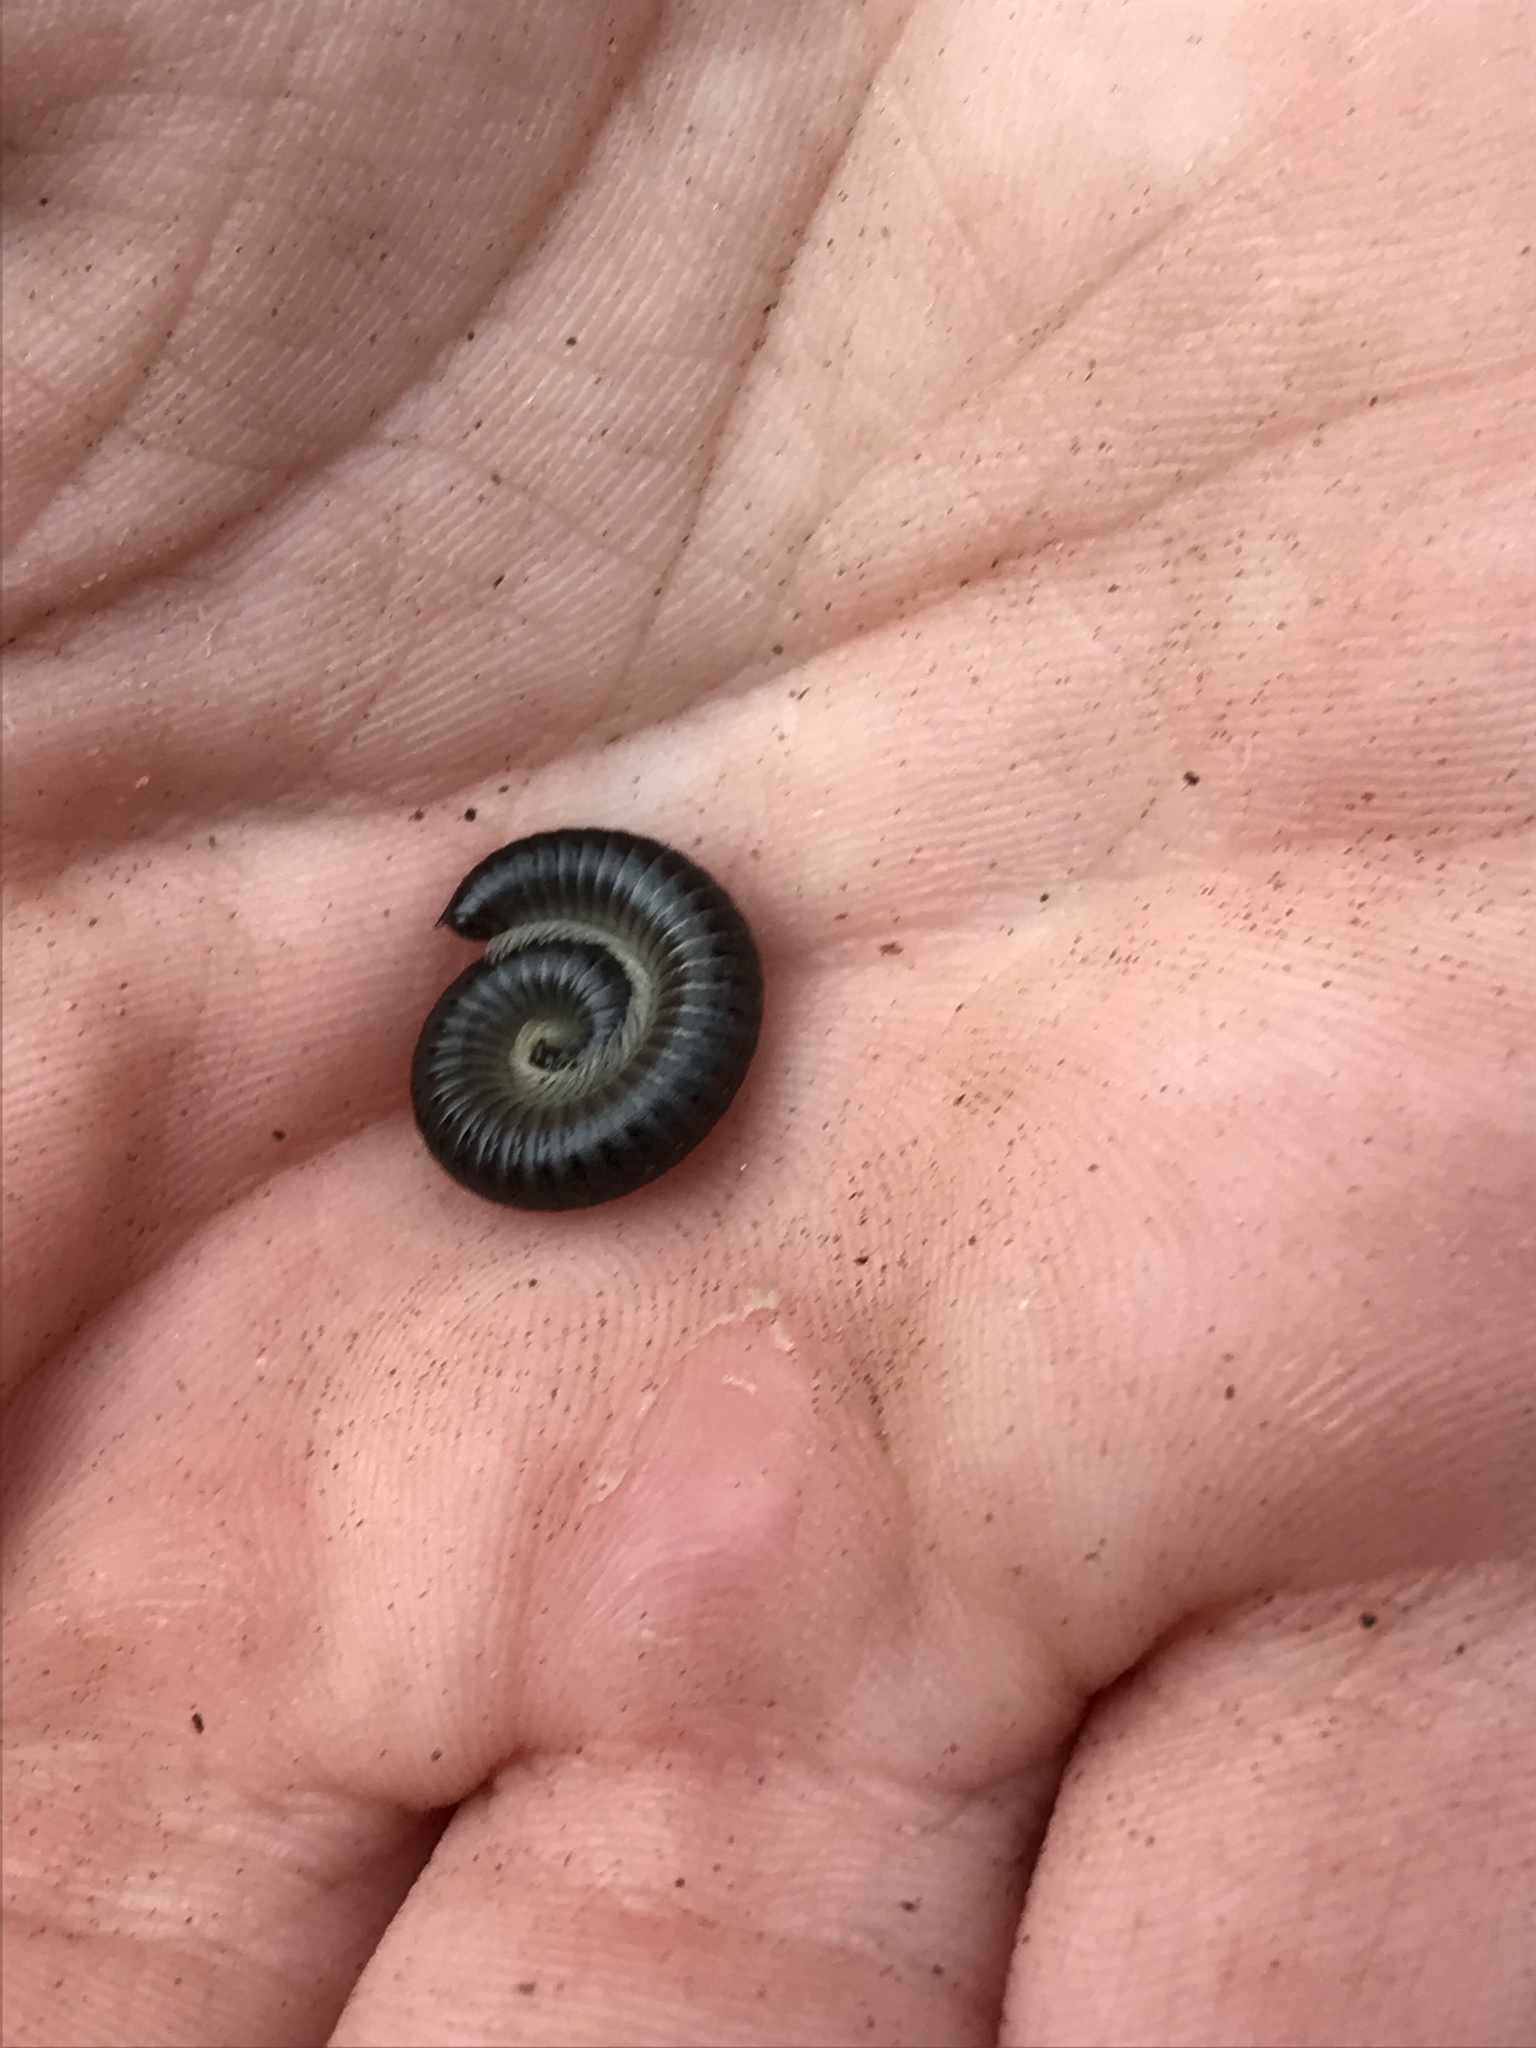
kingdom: Animalia
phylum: Arthropoda
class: Diplopoda
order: Julida
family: Julidae
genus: Ommatoiulus
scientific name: Ommatoiulus moreleti
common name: Portuguese millipede
